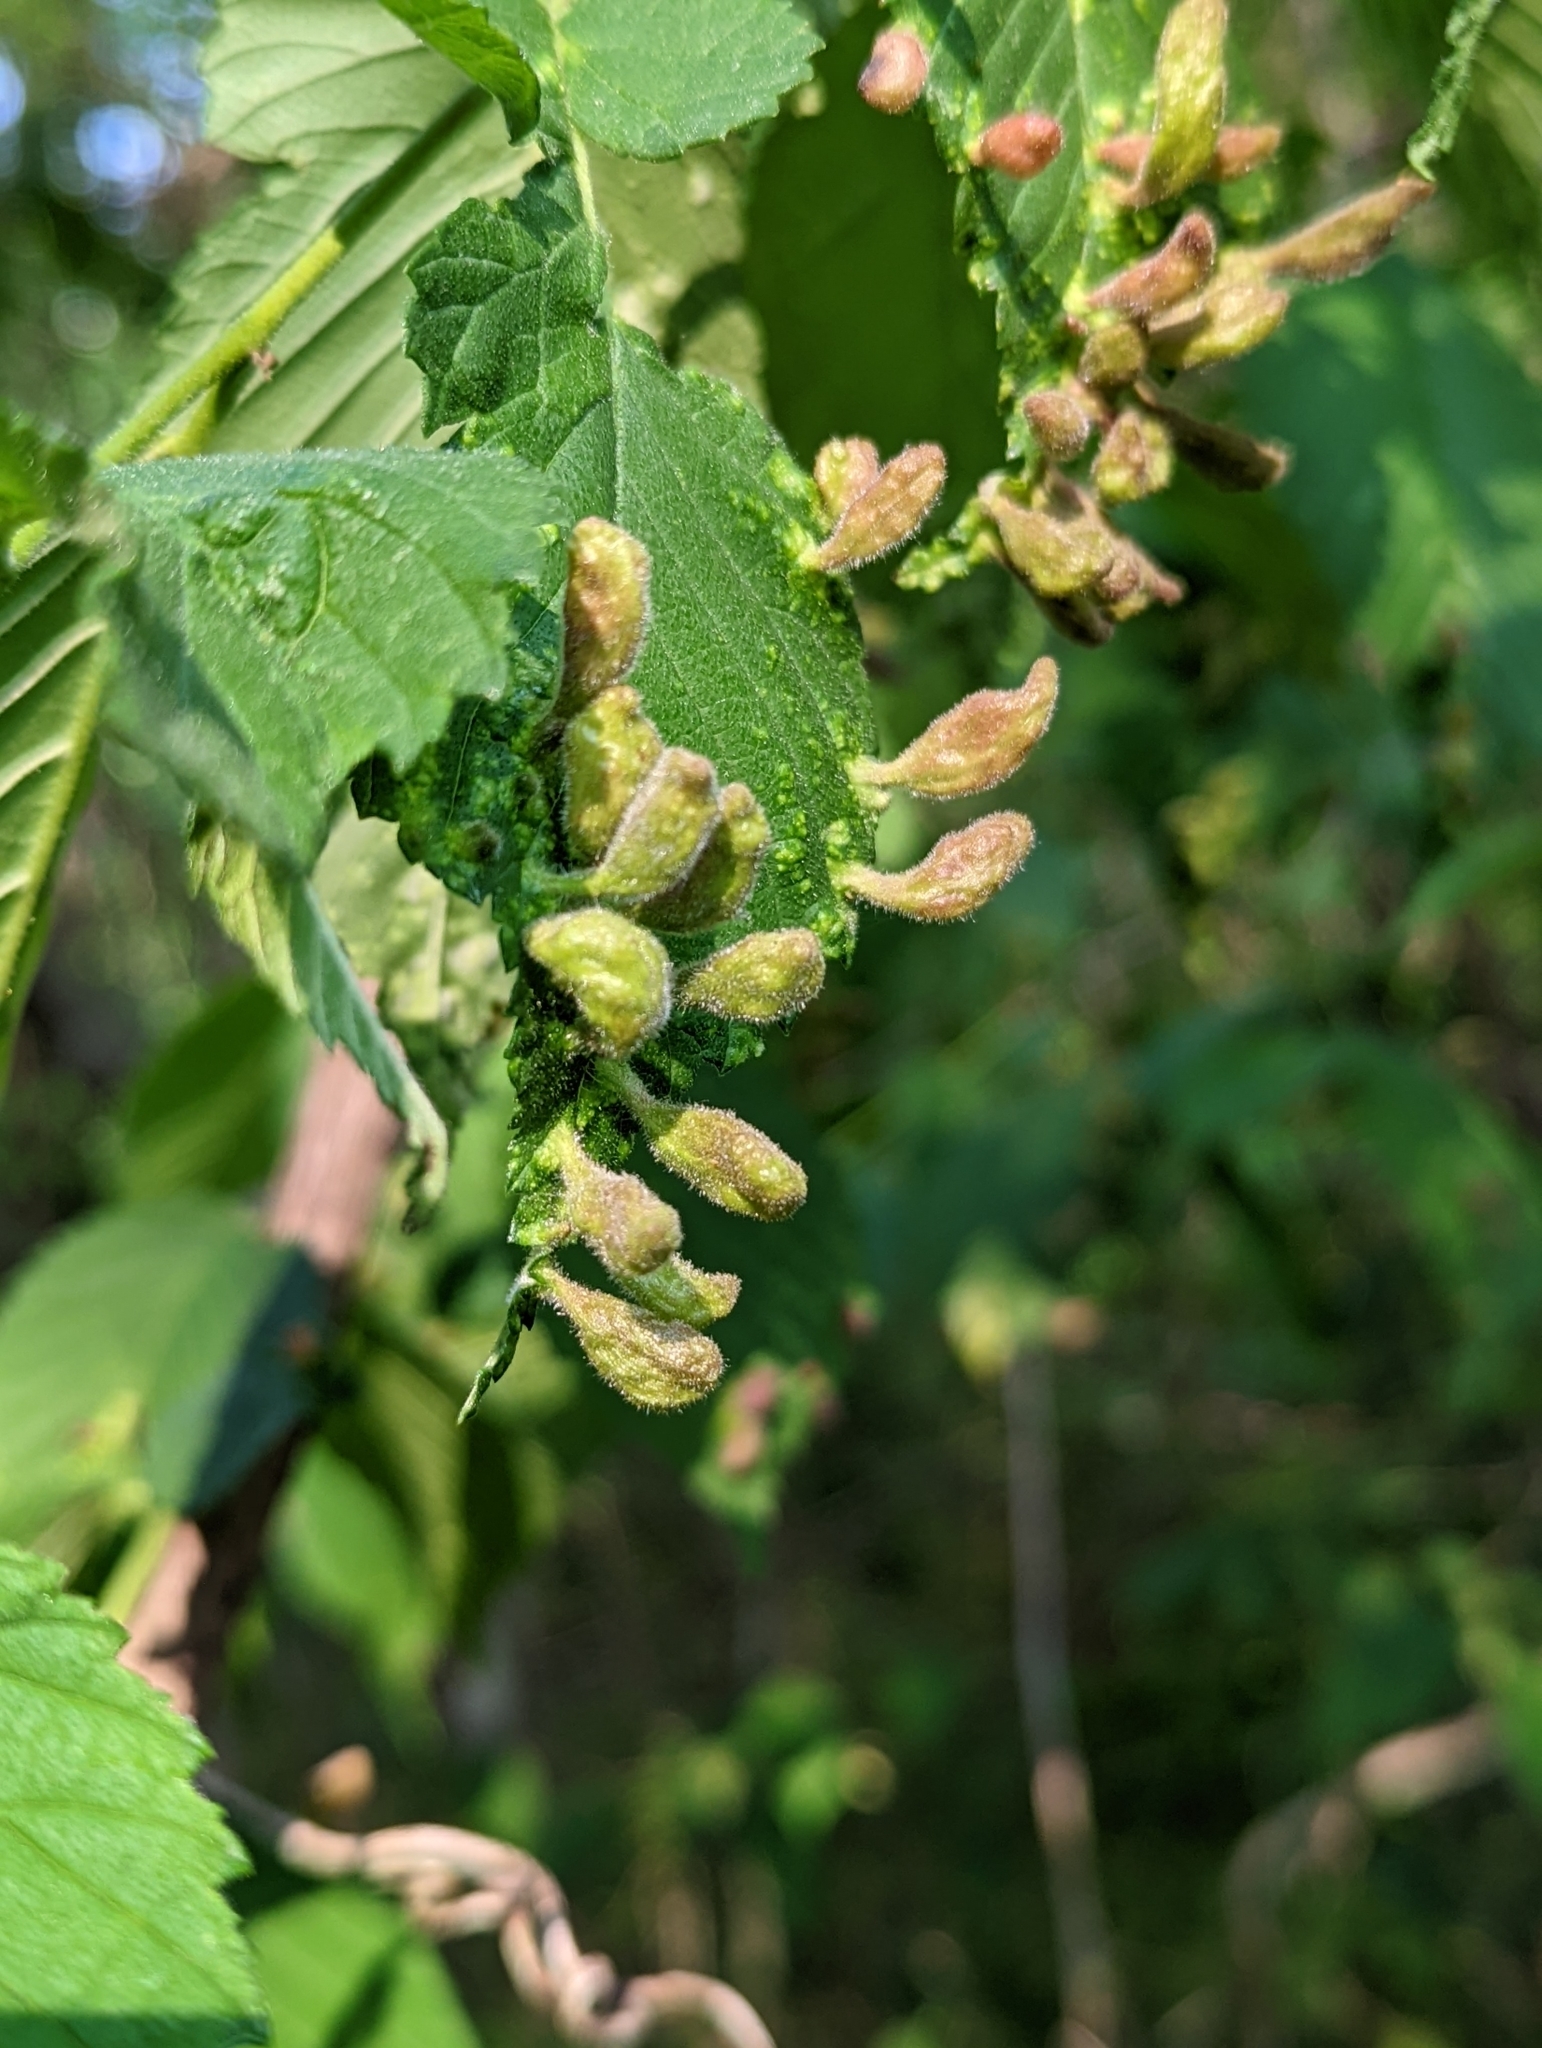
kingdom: Animalia
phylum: Arthropoda
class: Insecta
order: Hemiptera
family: Aphididae
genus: Tetraneura
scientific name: Tetraneura nigriabdominalis
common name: Aphid
